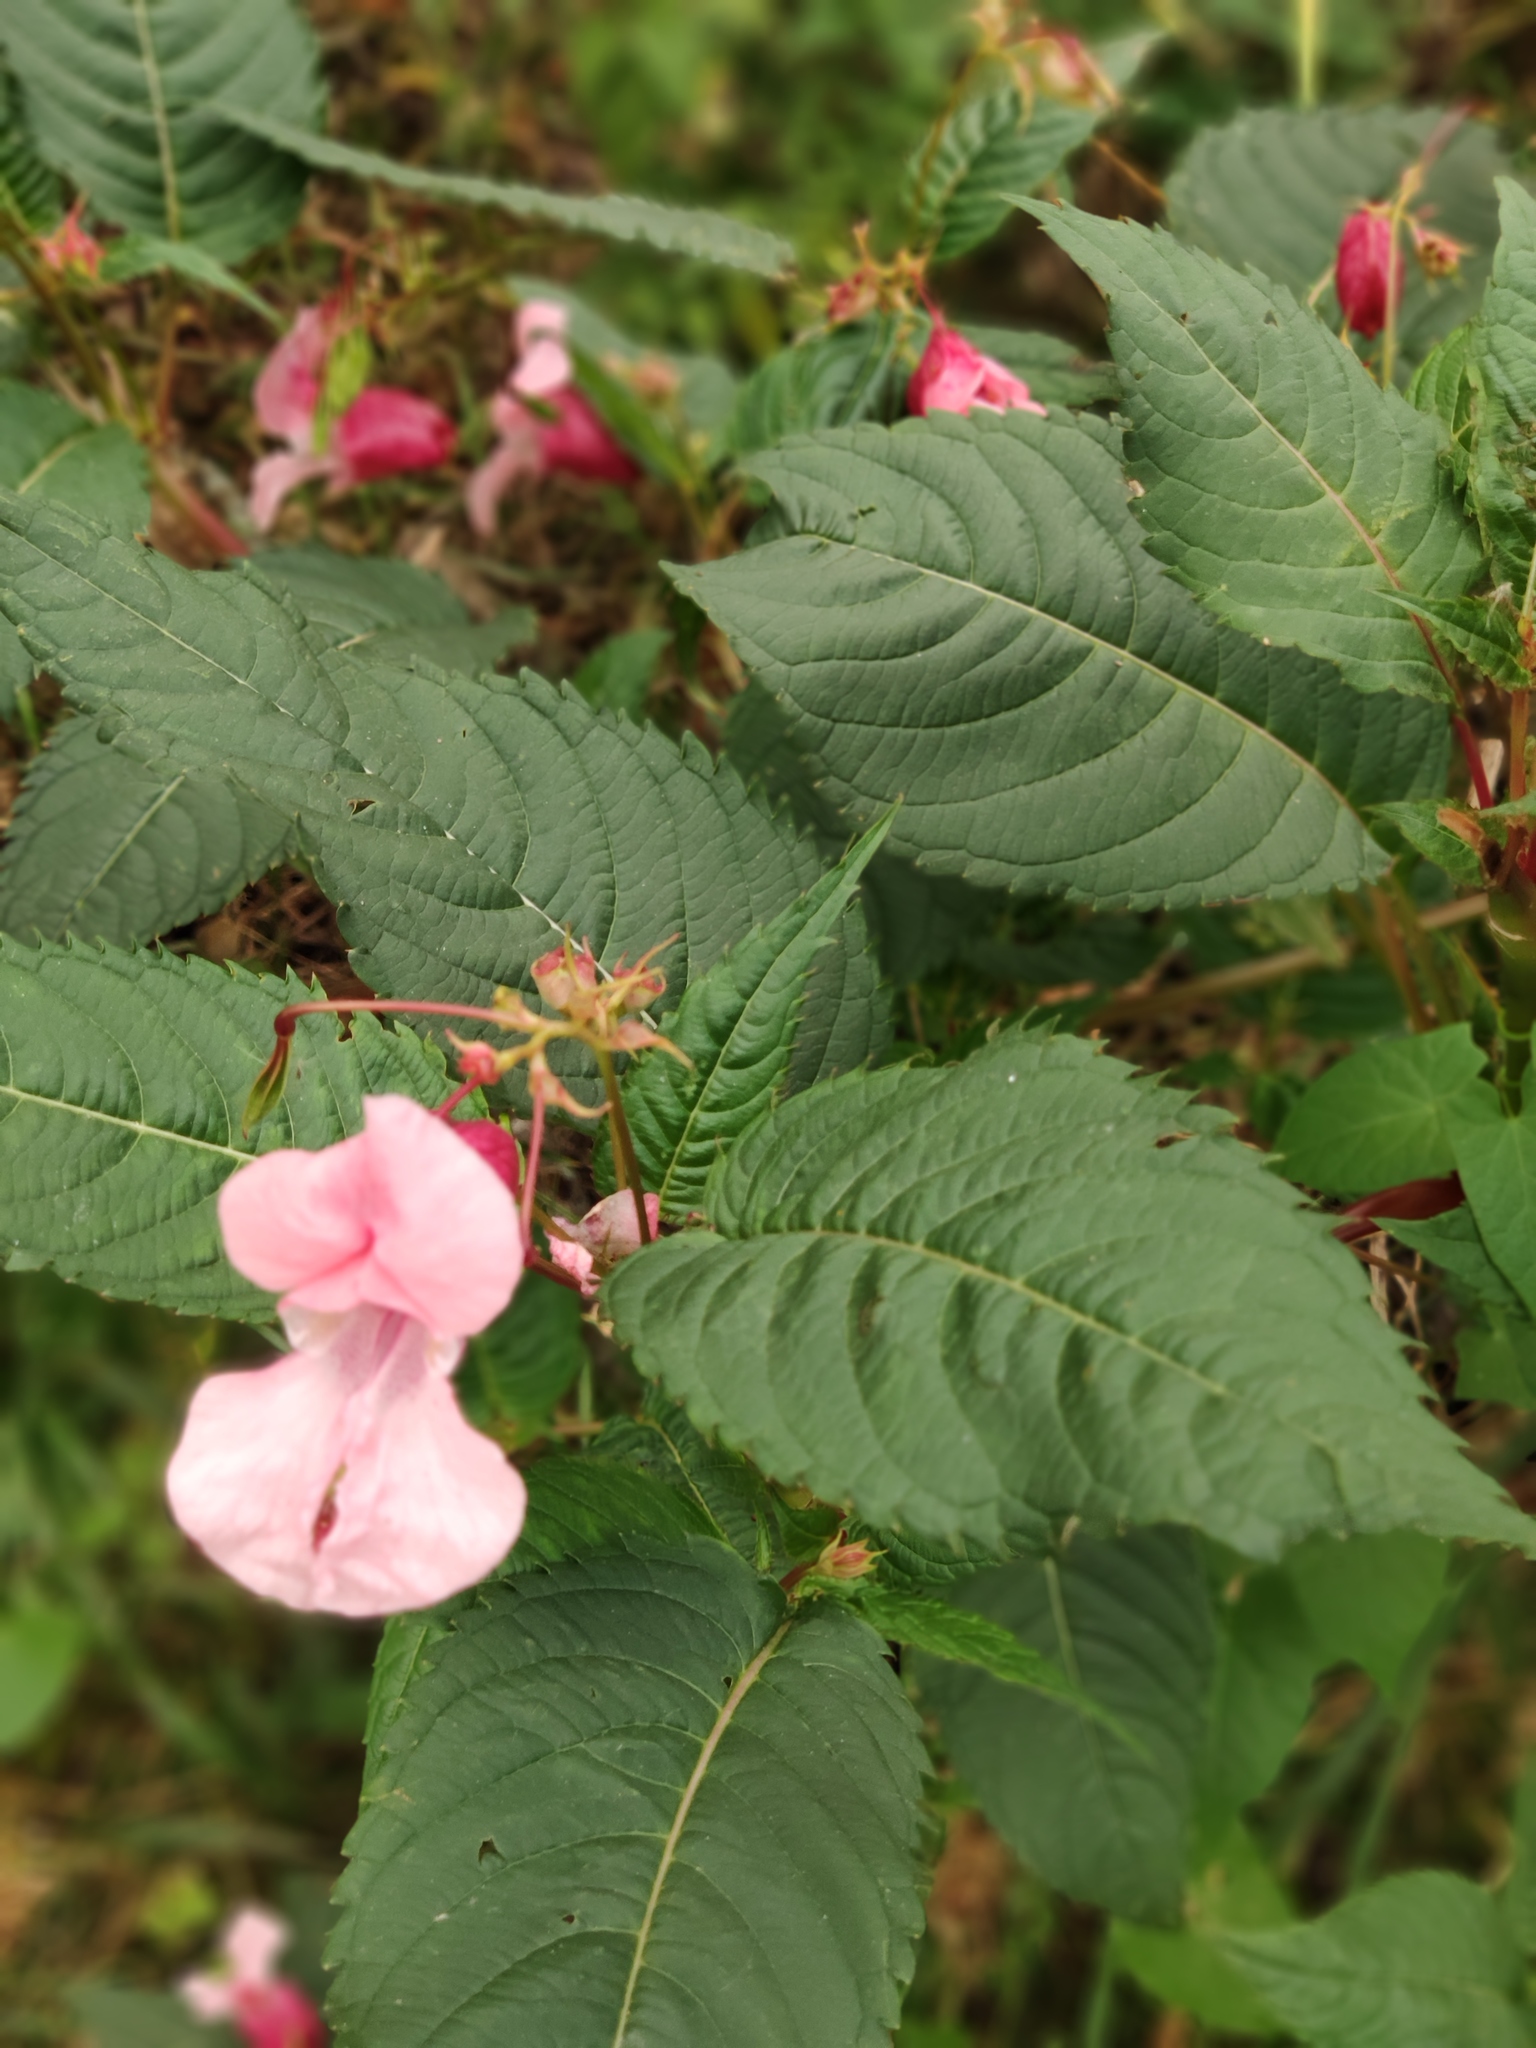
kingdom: Plantae
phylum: Tracheophyta
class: Magnoliopsida
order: Ericales
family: Balsaminaceae
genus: Impatiens
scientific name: Impatiens glandulifera
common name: Himalayan balsam
